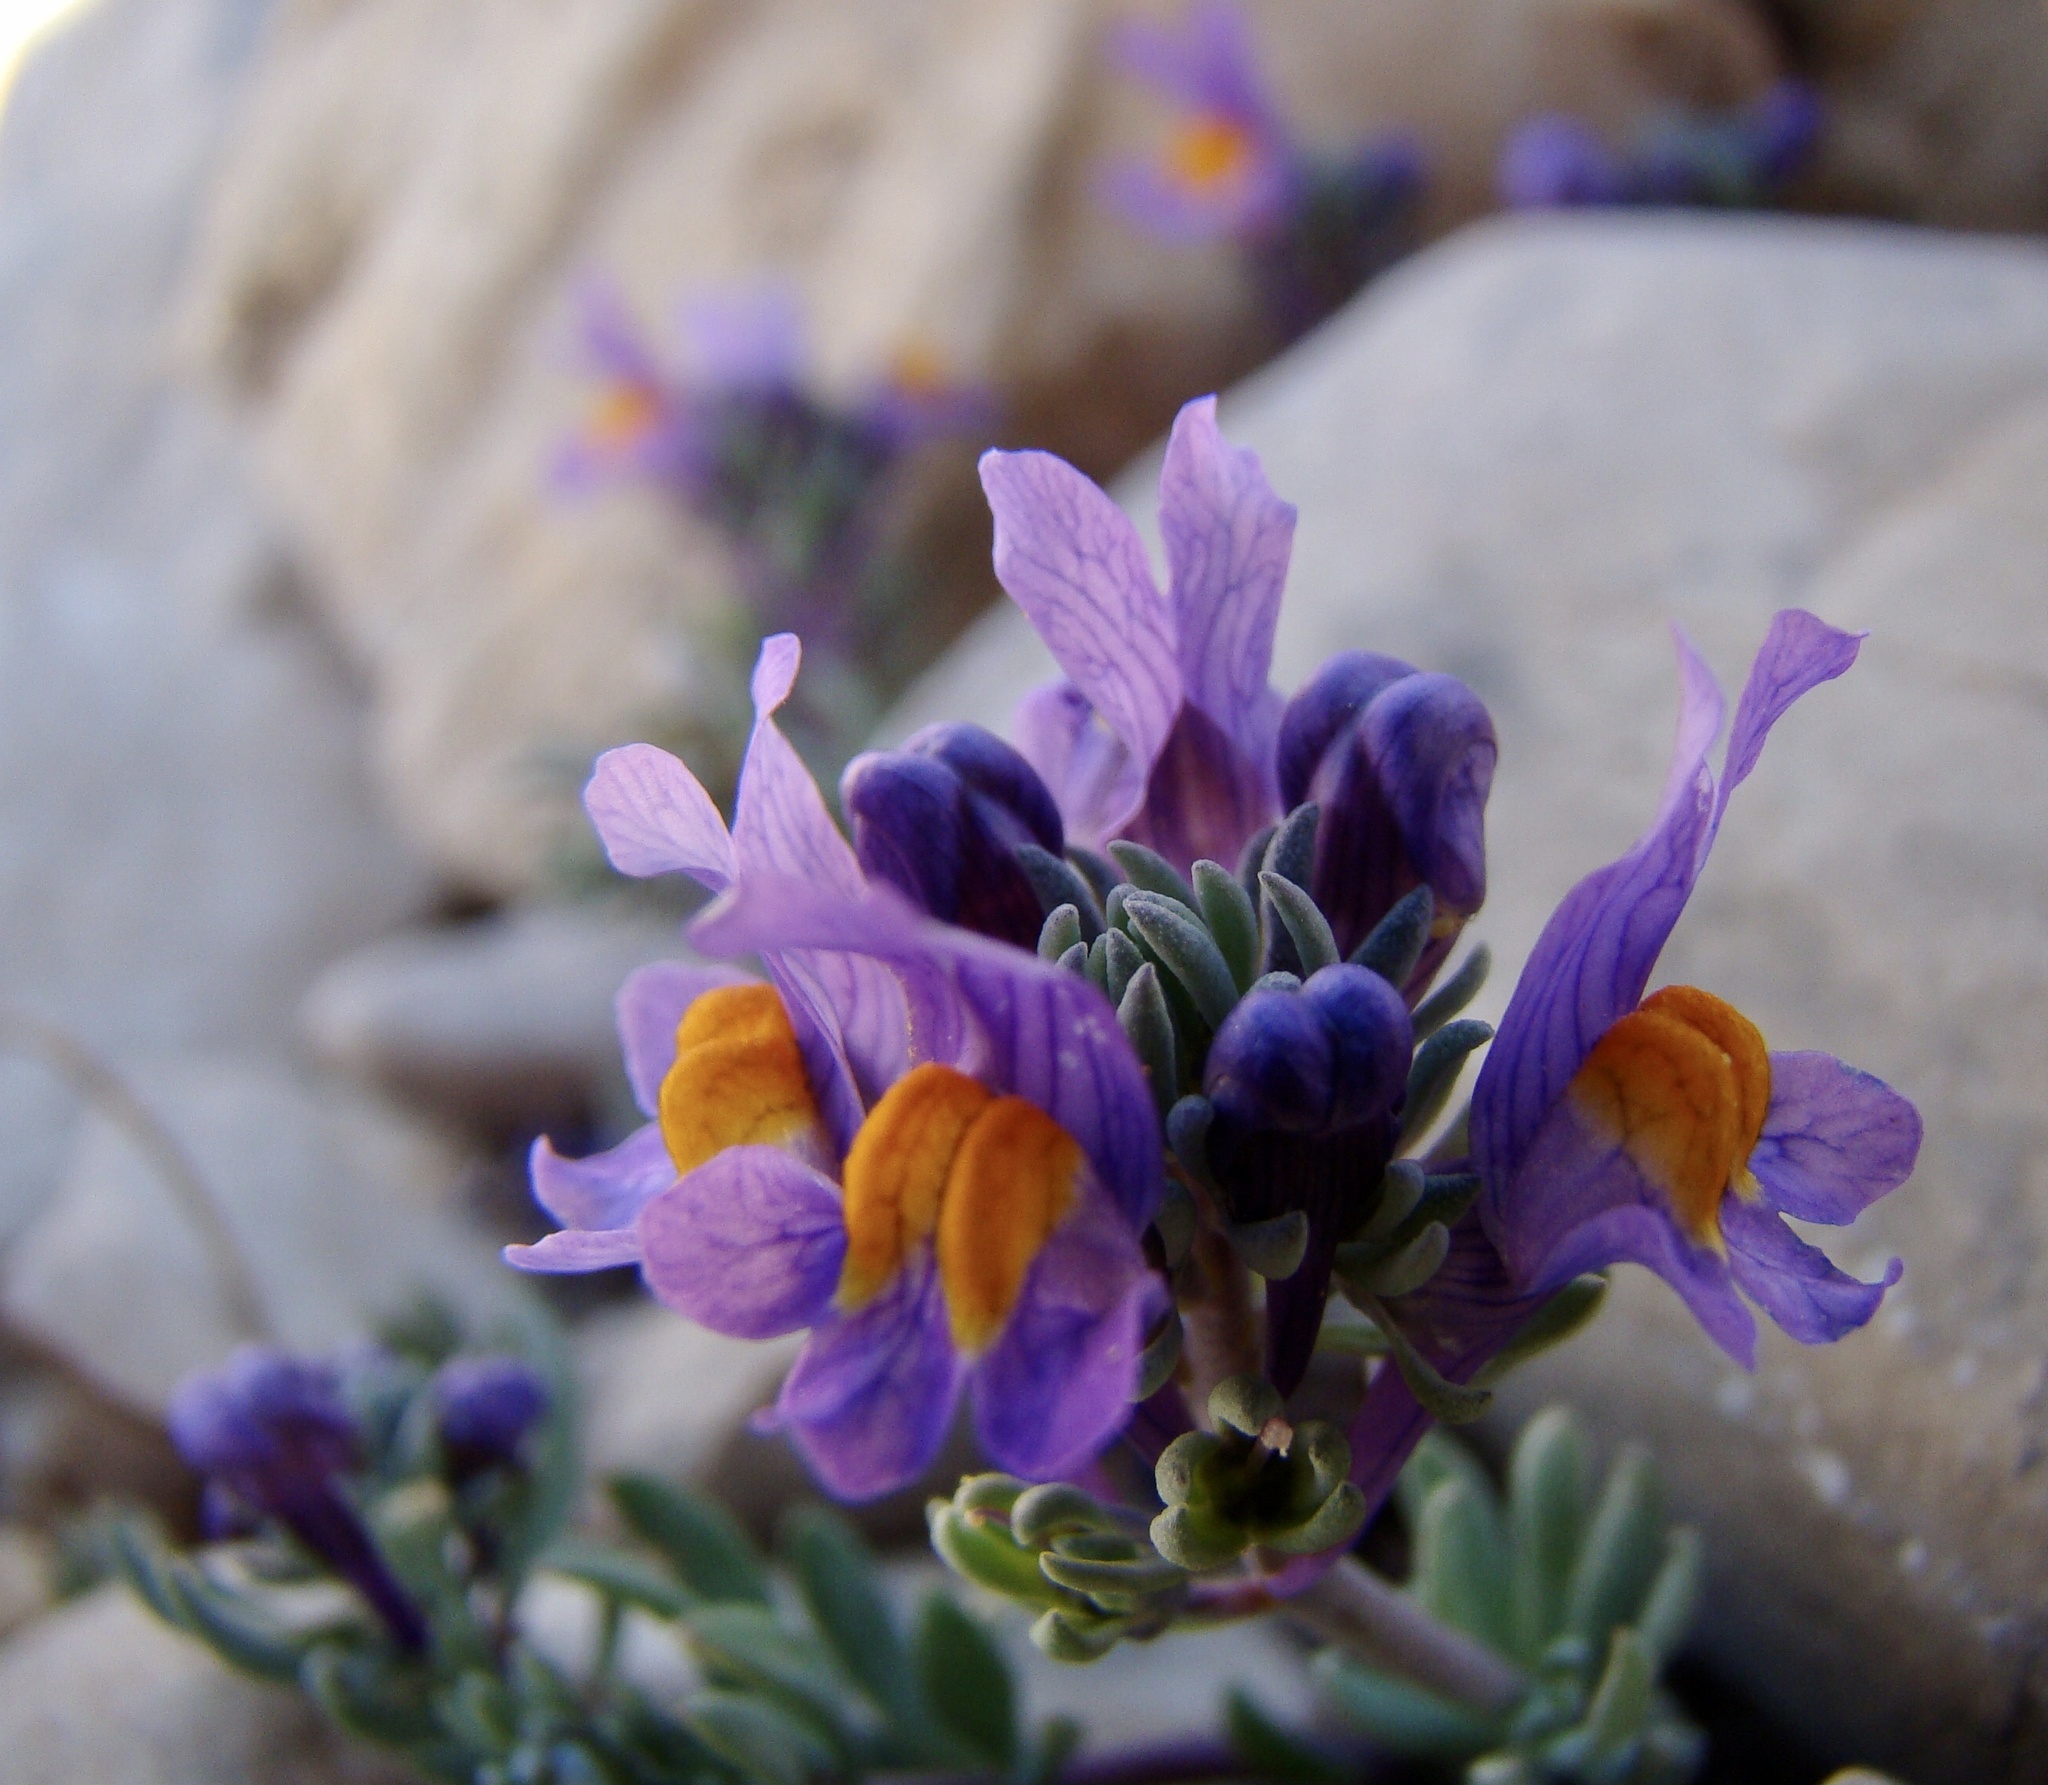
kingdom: Plantae
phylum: Tracheophyta
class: Magnoliopsida
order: Lamiales
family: Plantaginaceae
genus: Linaria
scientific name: Linaria alpina
